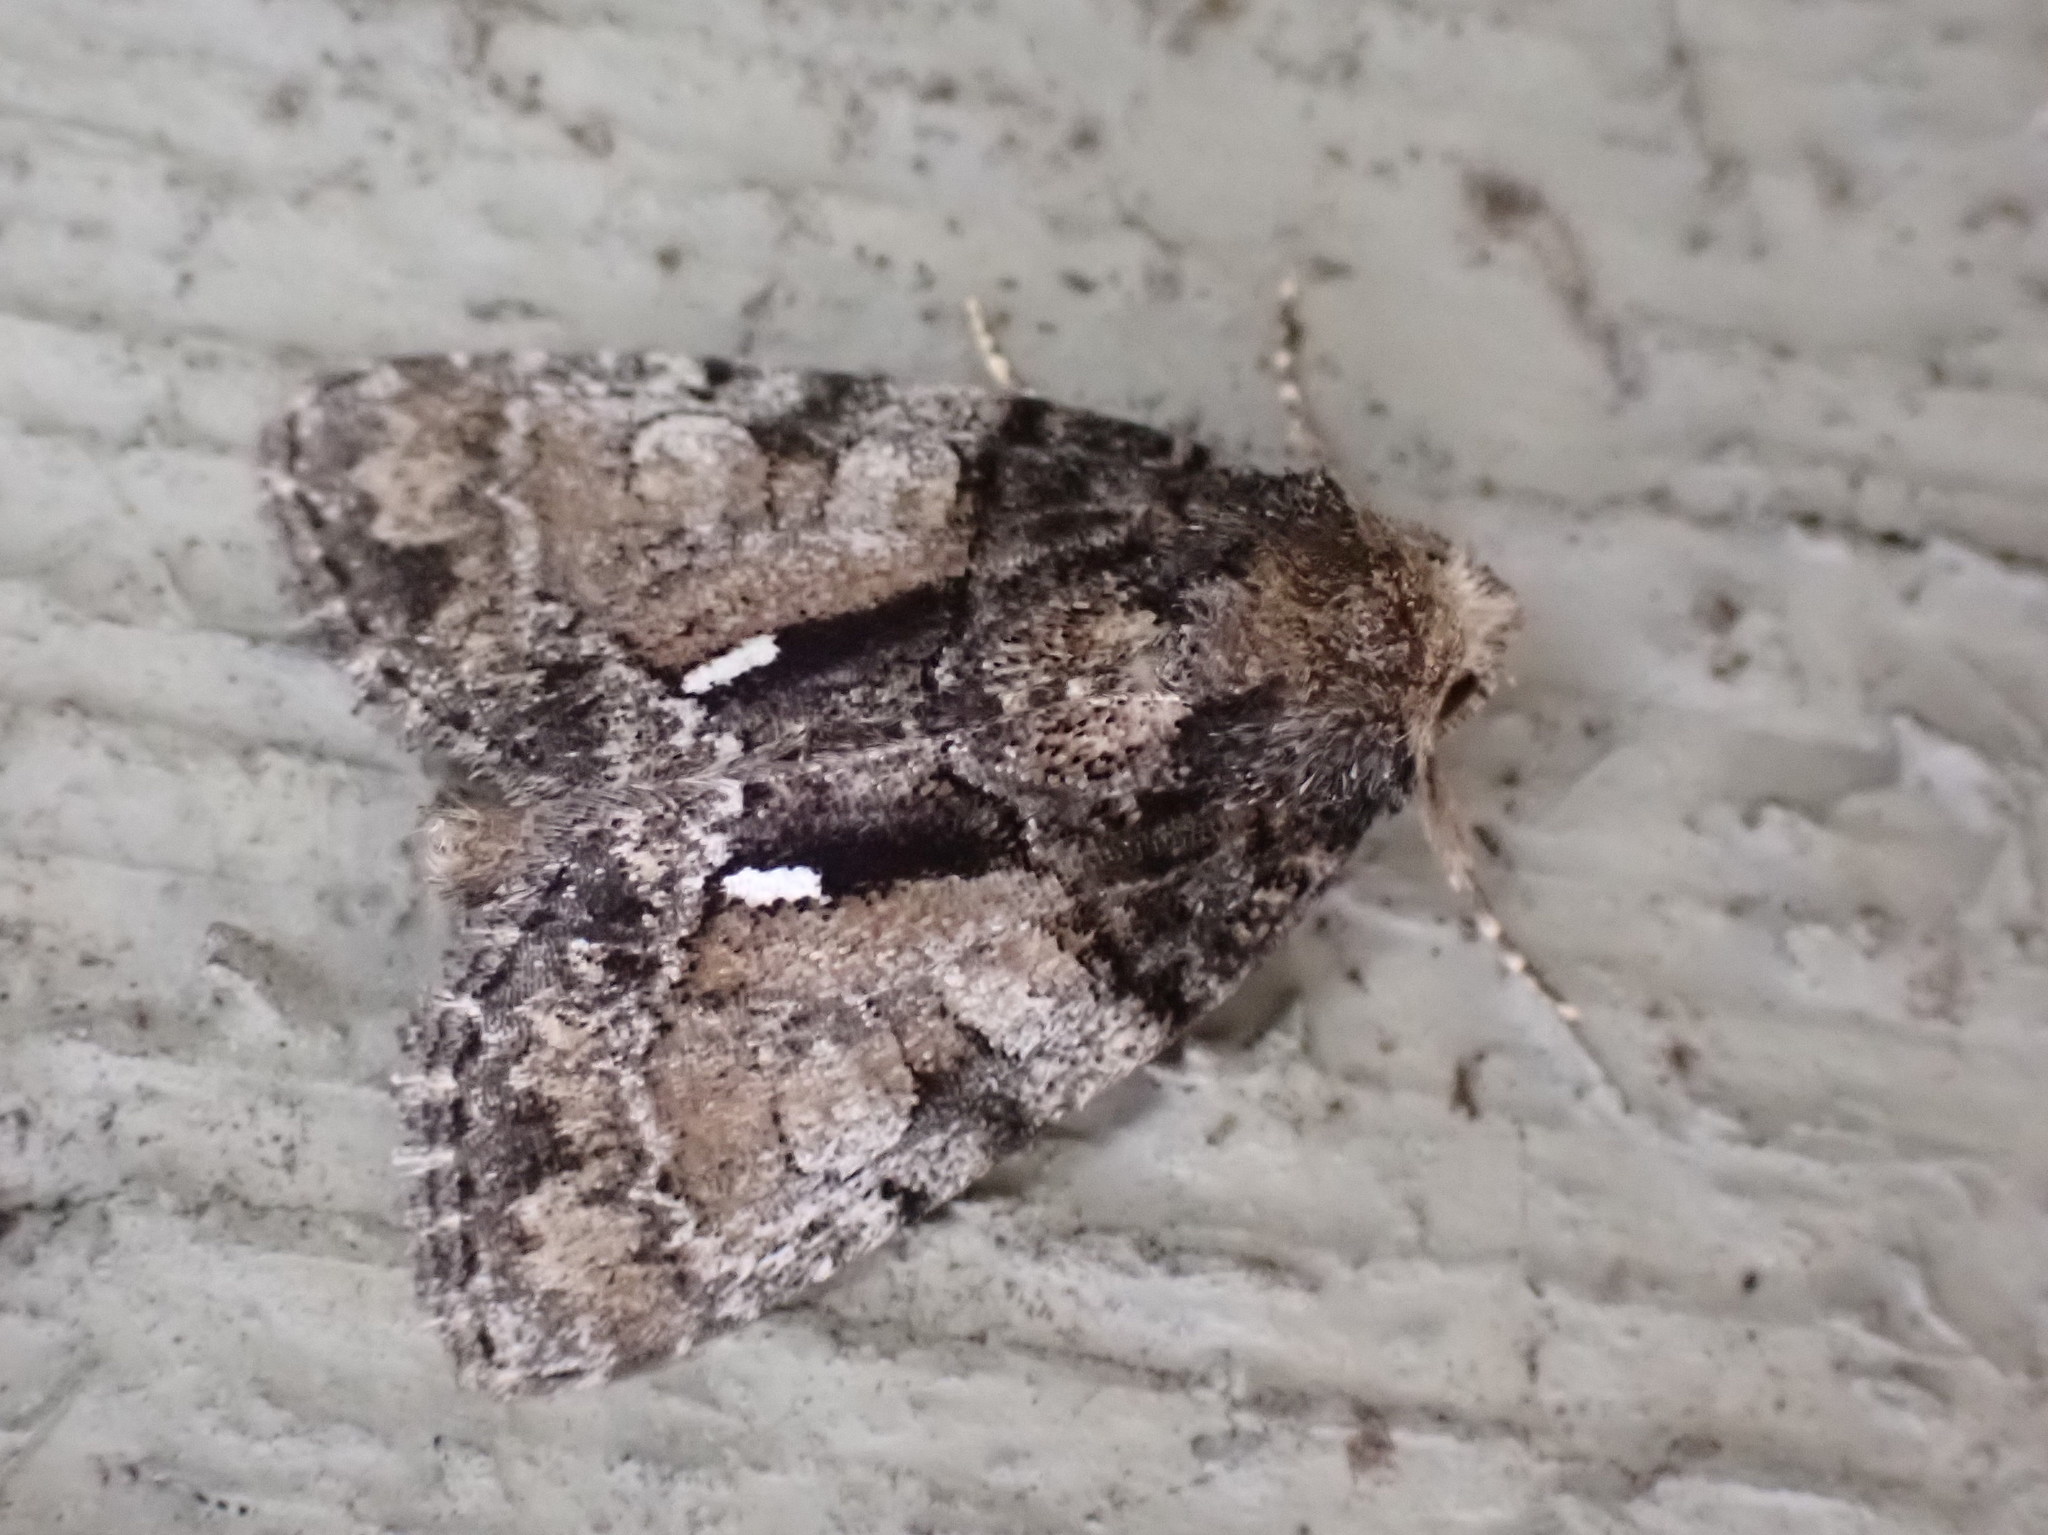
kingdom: Animalia
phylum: Arthropoda
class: Insecta
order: Lepidoptera
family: Noctuidae
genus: Chytonix
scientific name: Chytonix palliatricula
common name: Cloaked marvel
